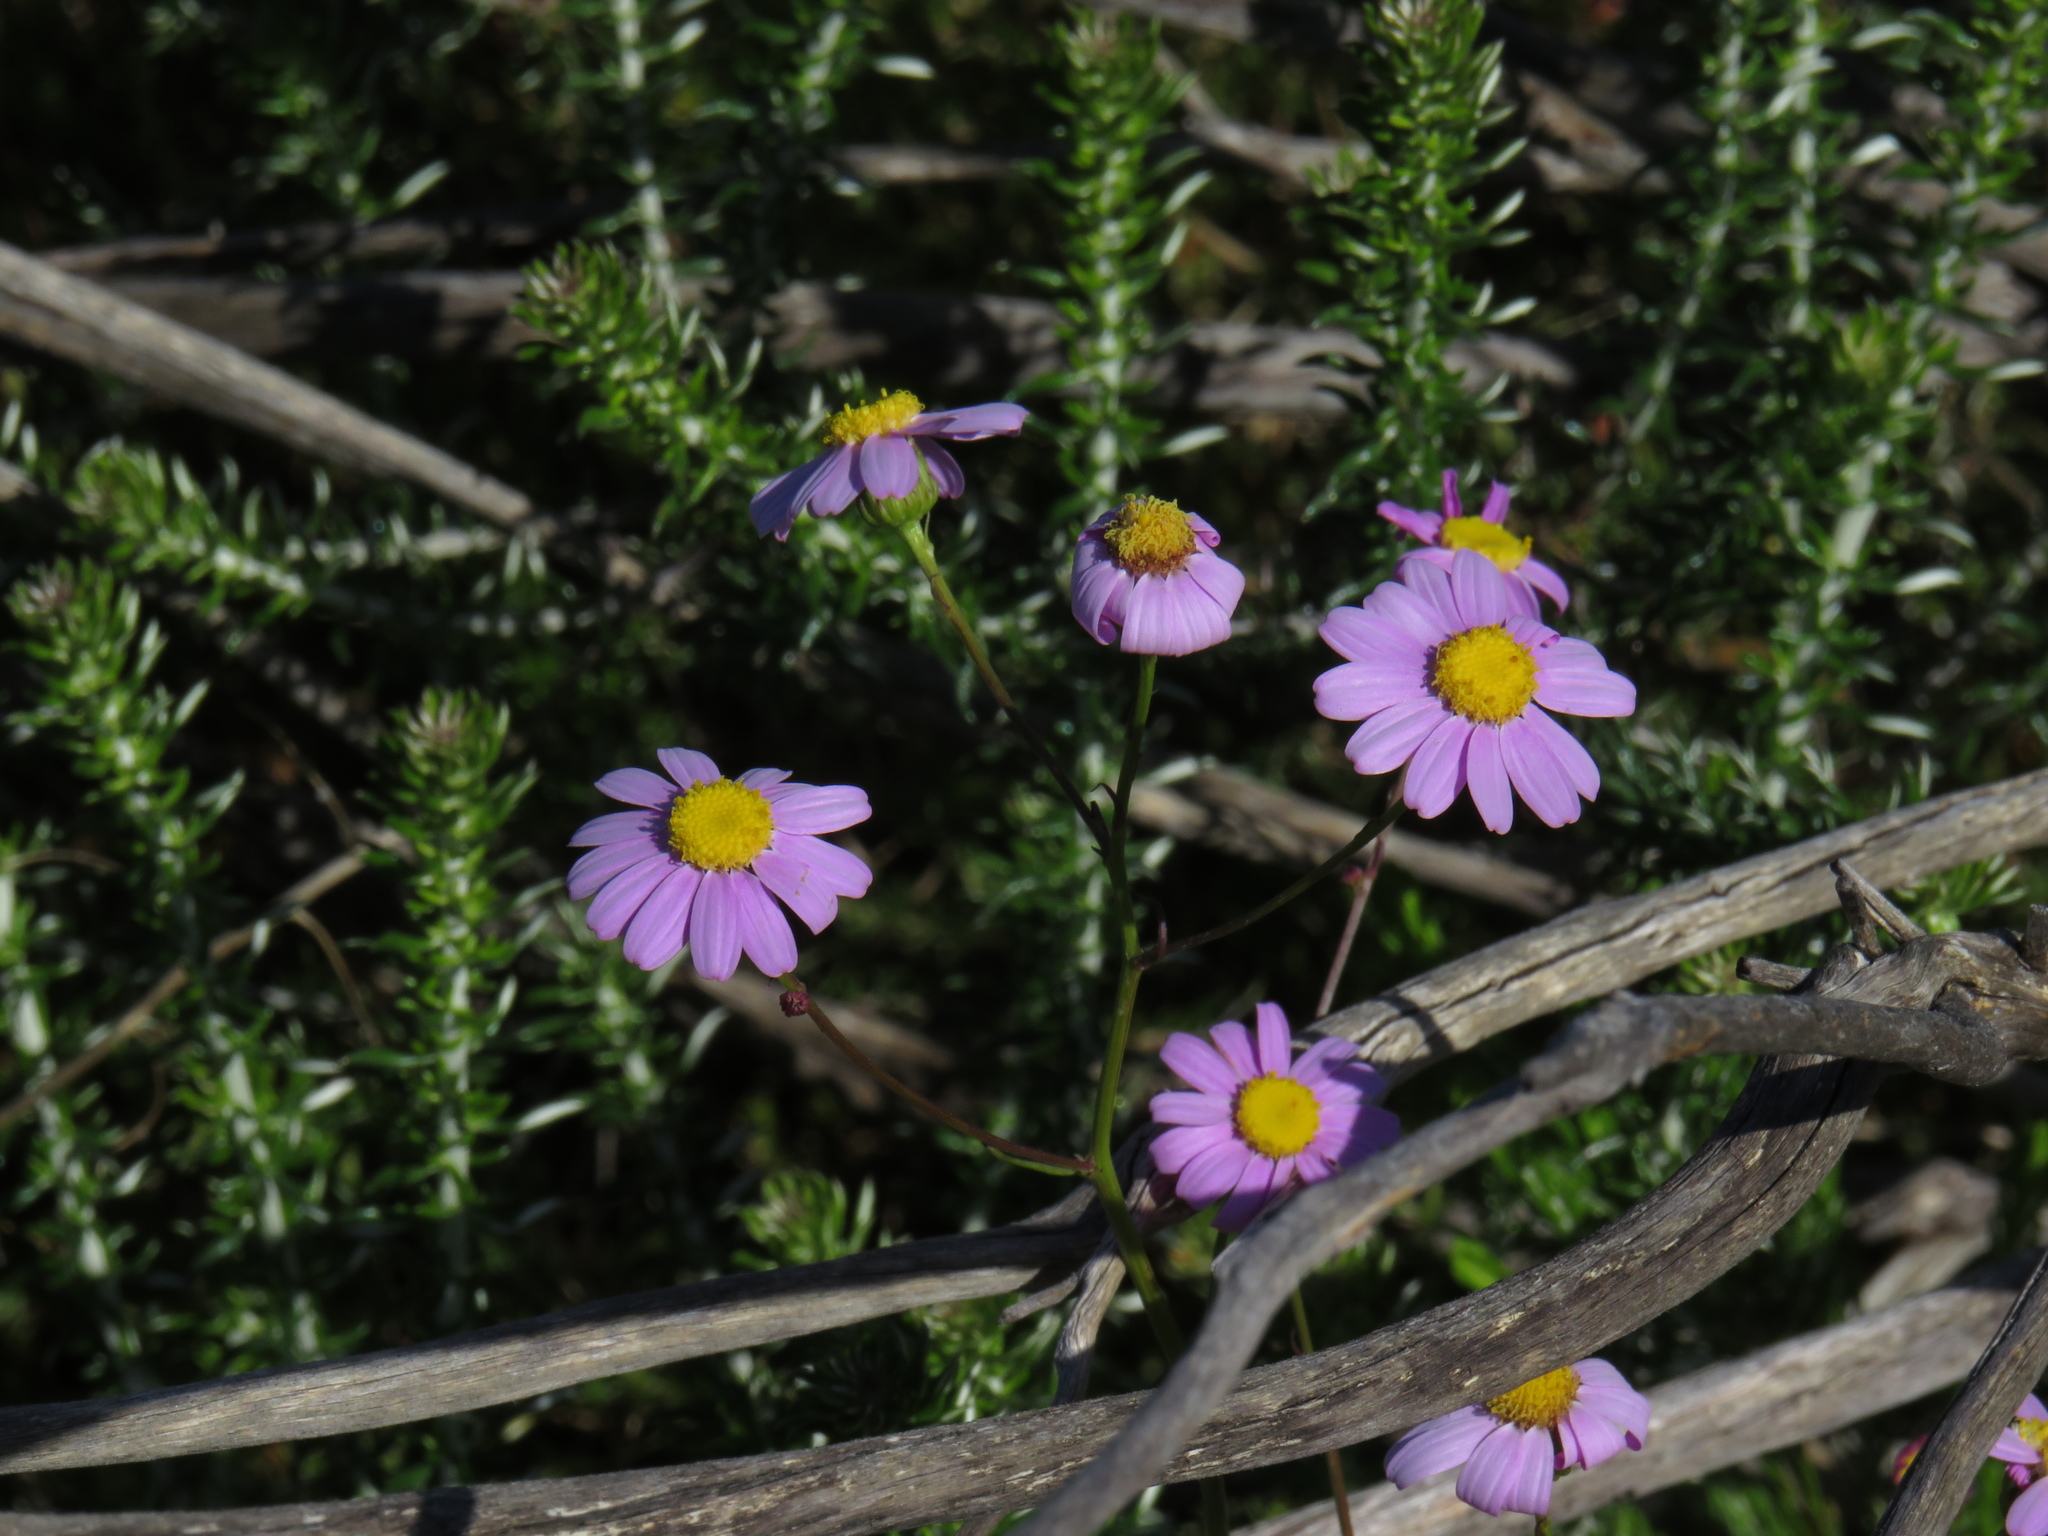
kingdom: Plantae
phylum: Tracheophyta
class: Magnoliopsida
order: Asterales
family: Asteraceae
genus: Senecio
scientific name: Senecio umbellatus
